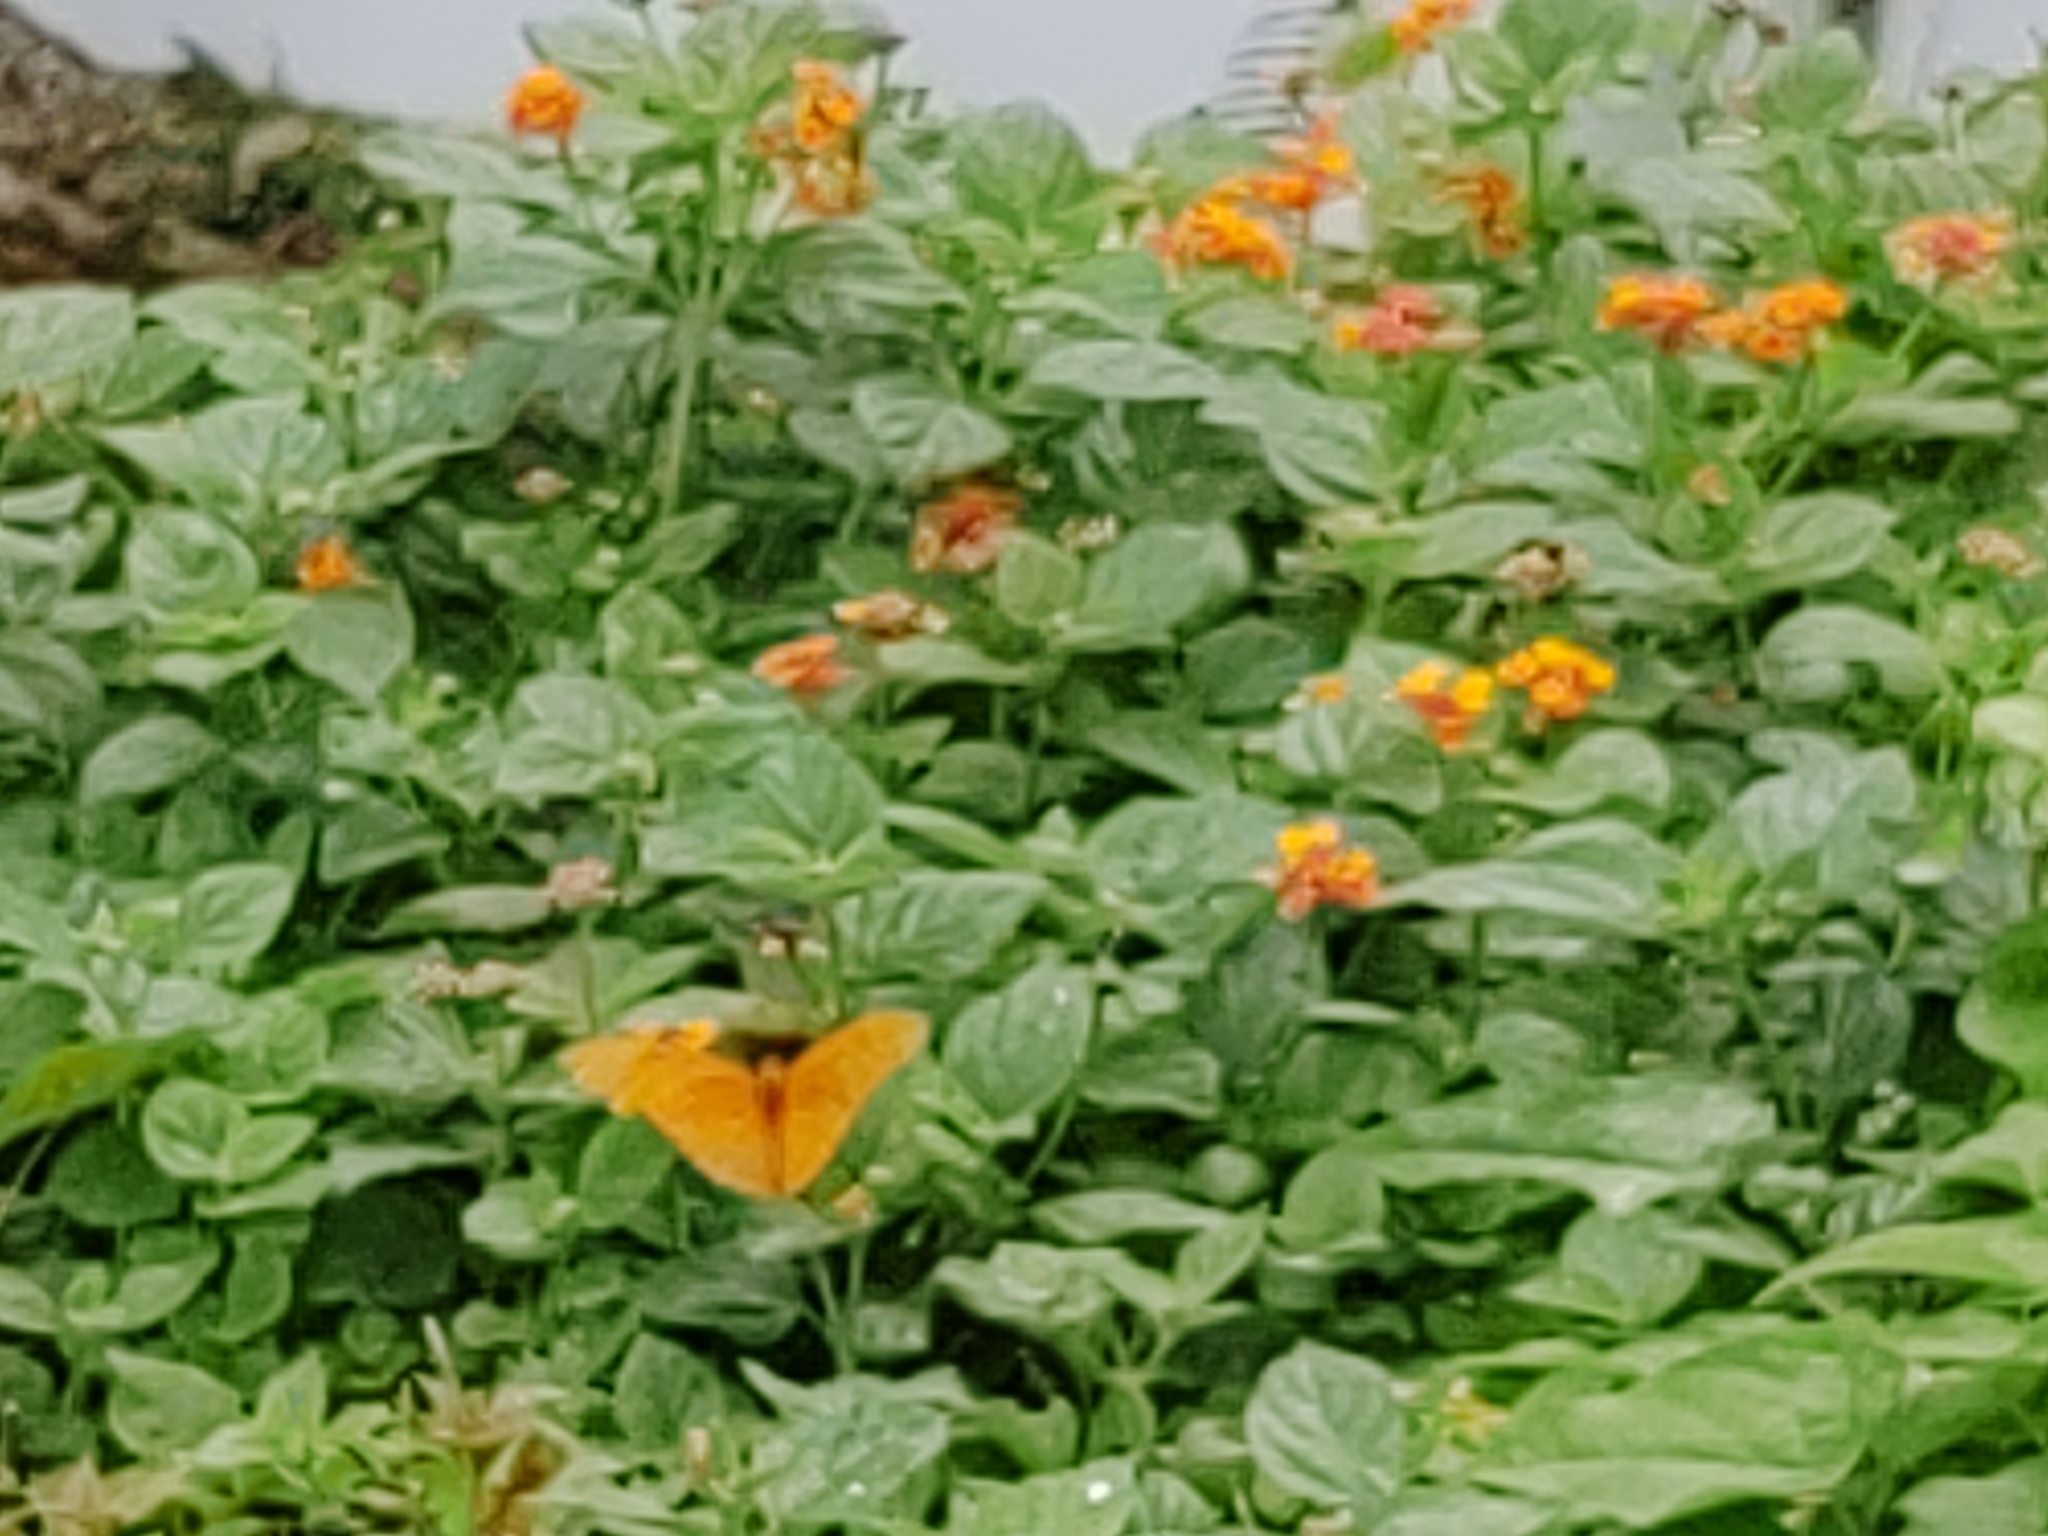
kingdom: Animalia
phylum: Arthropoda
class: Insecta
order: Lepidoptera
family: Nymphalidae
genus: Dryas
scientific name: Dryas iulia
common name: Flambeau
